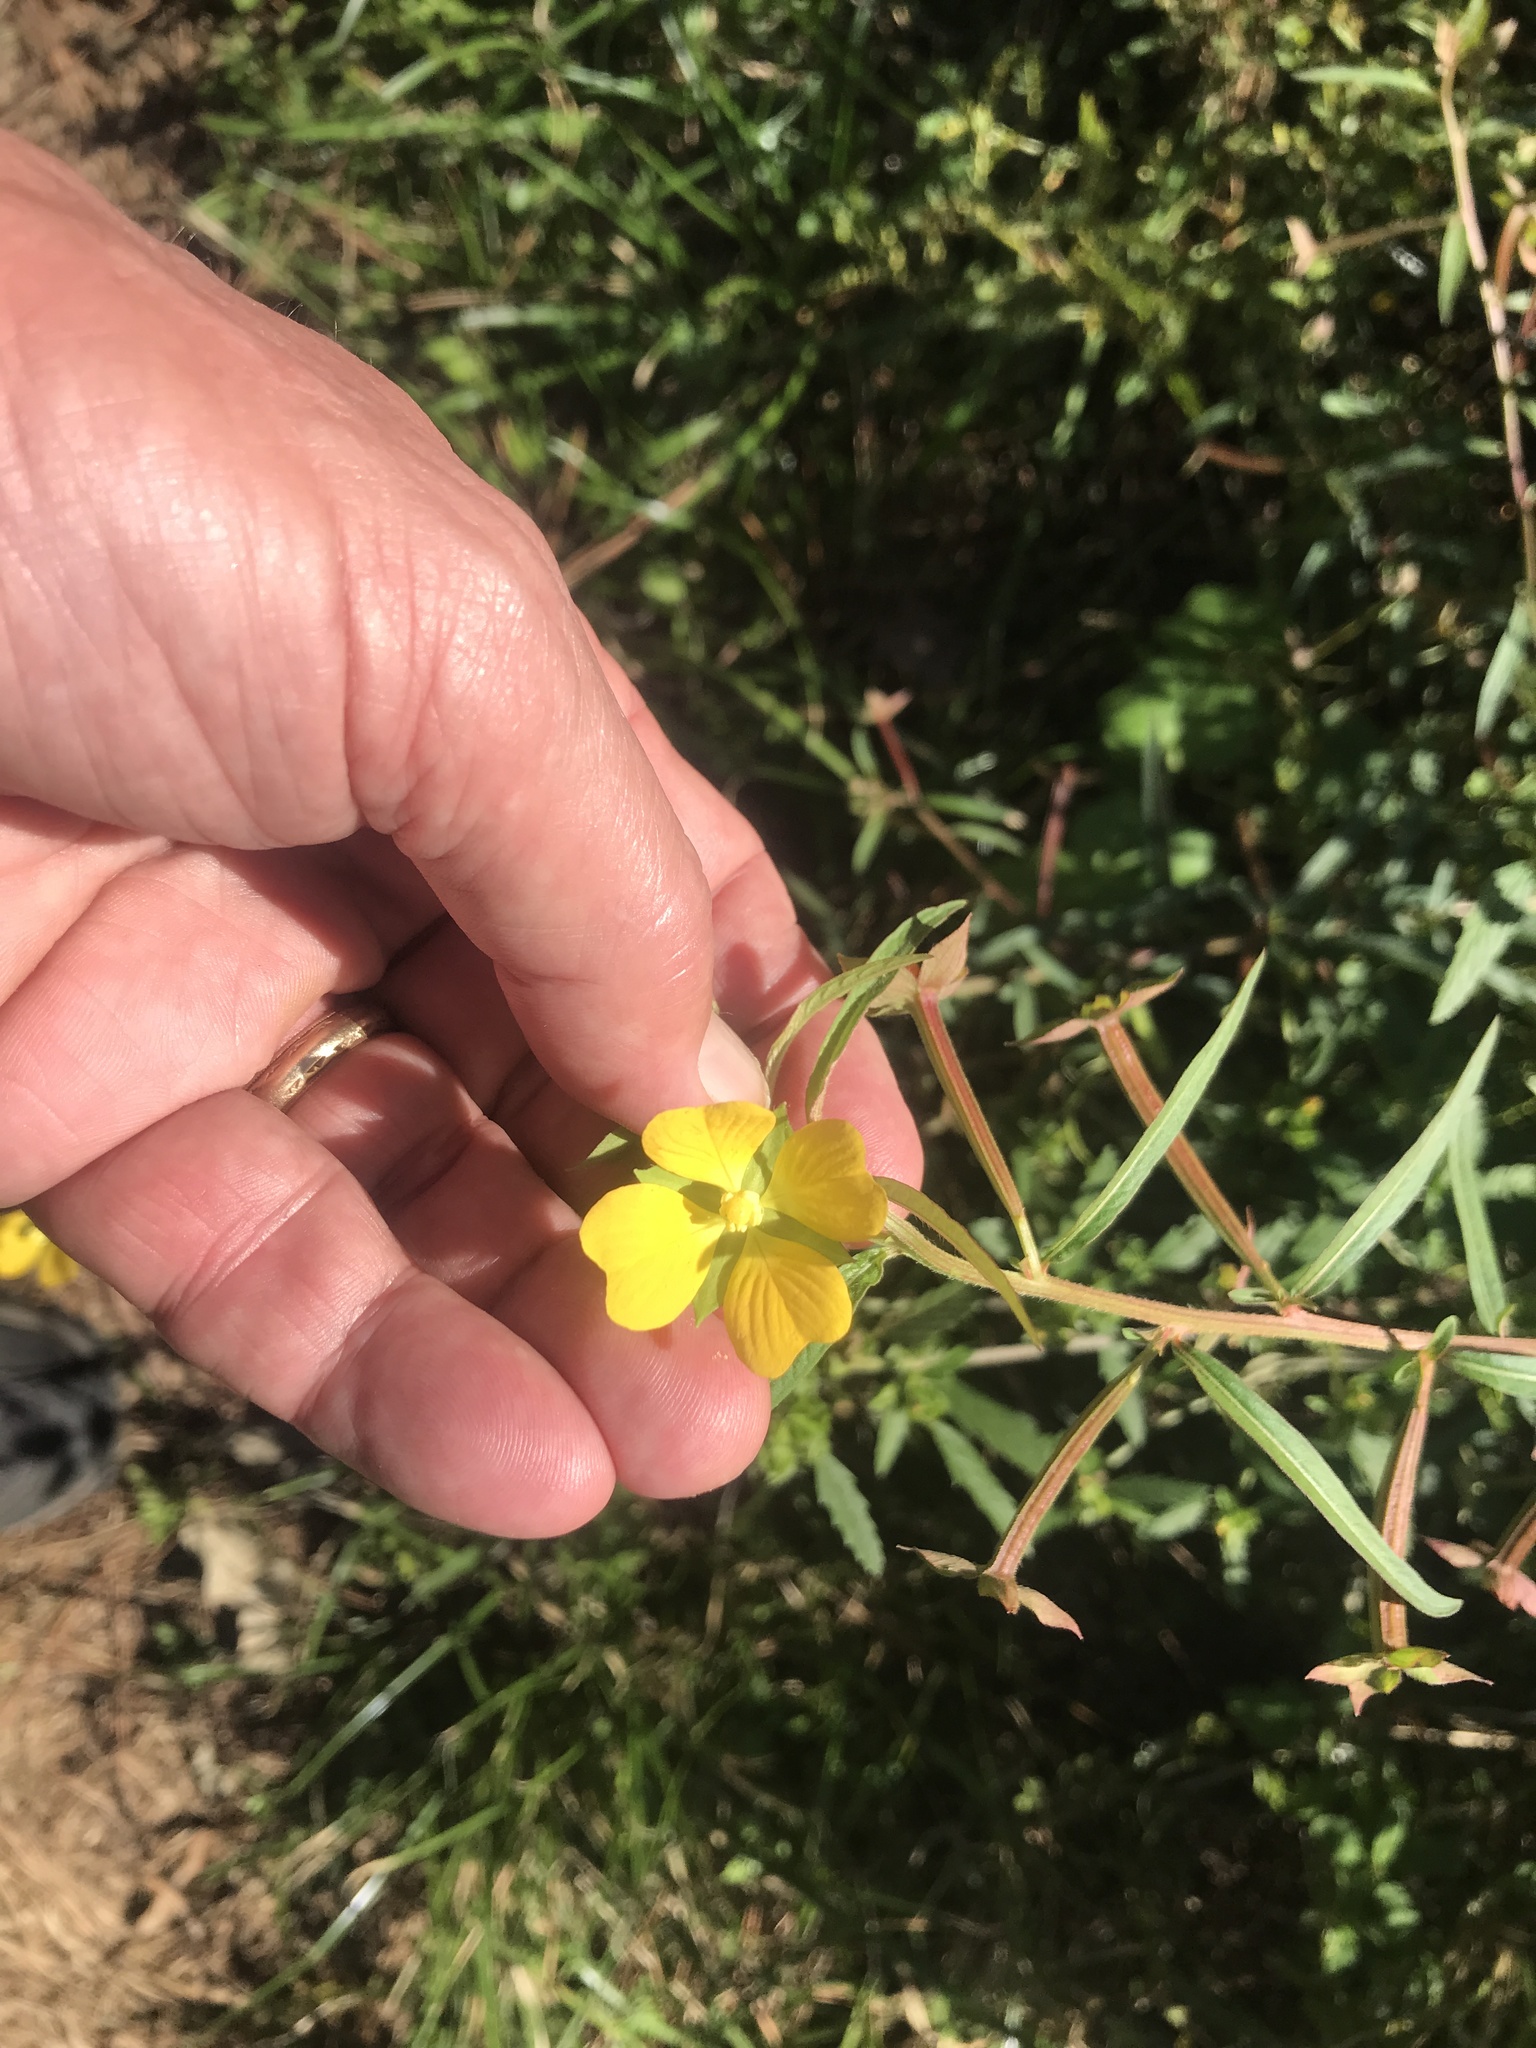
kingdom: Plantae
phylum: Tracheophyta
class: Magnoliopsida
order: Myrtales
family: Onagraceae
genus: Ludwigia
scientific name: Ludwigia octovalvis
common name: Water-primrose
